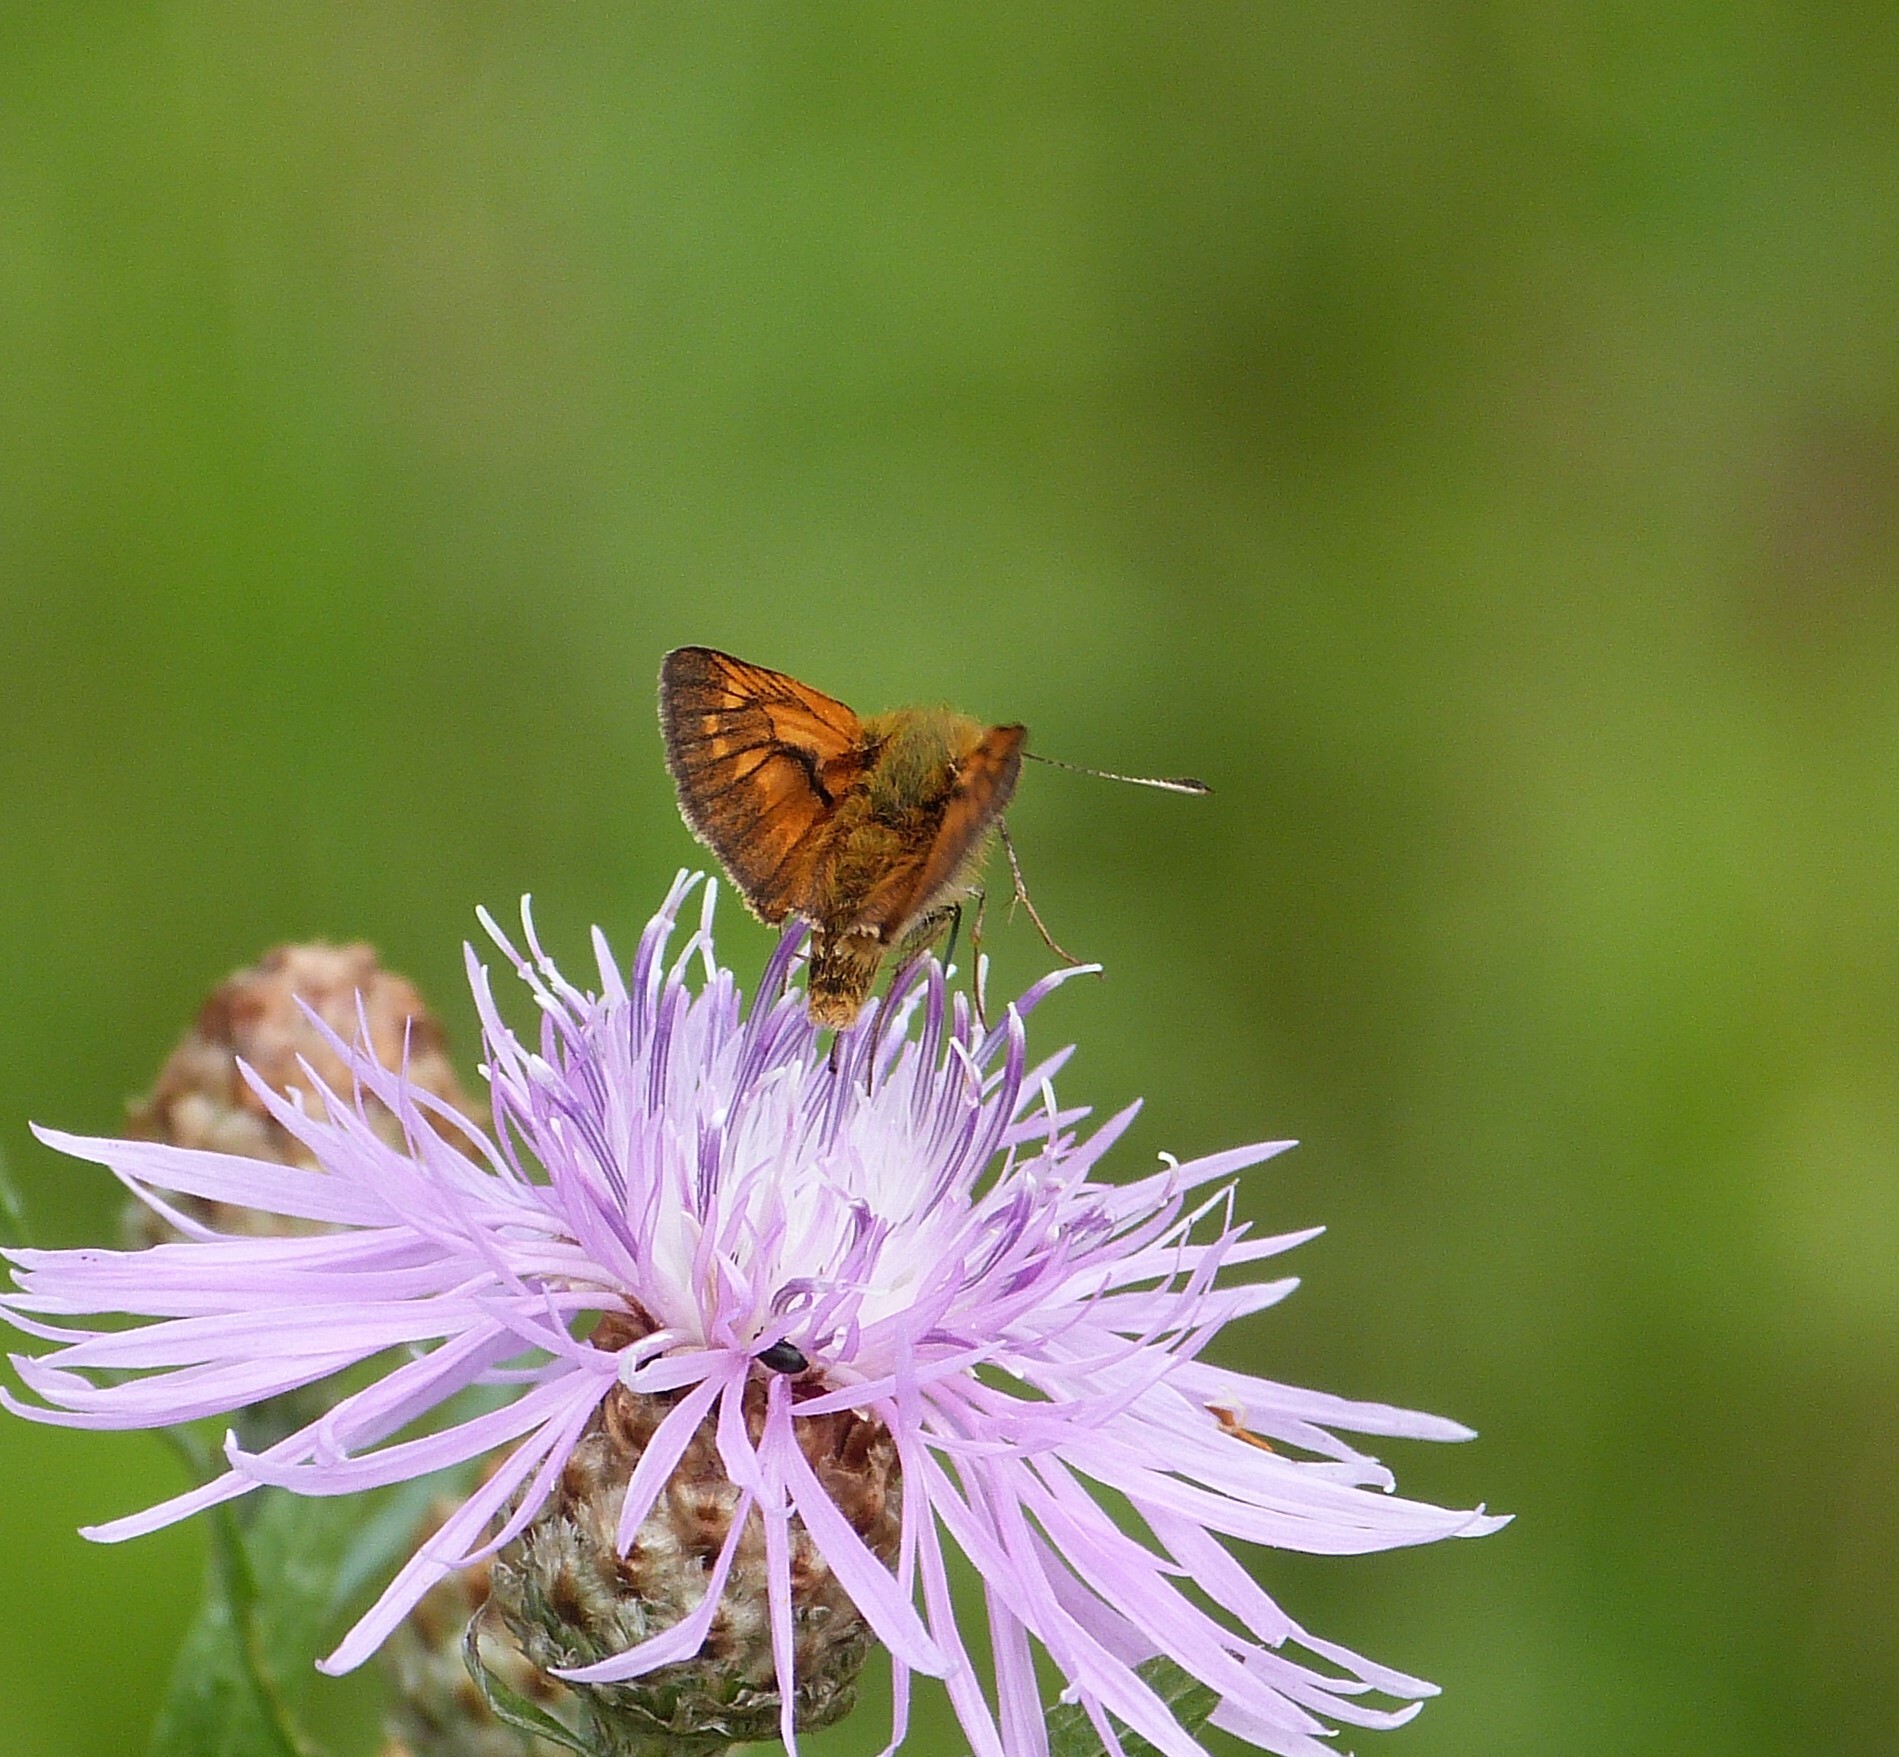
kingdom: Animalia
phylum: Arthropoda
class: Insecta
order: Lepidoptera
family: Hesperiidae
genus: Ochlodes
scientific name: Ochlodes venata
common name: Large skipper
